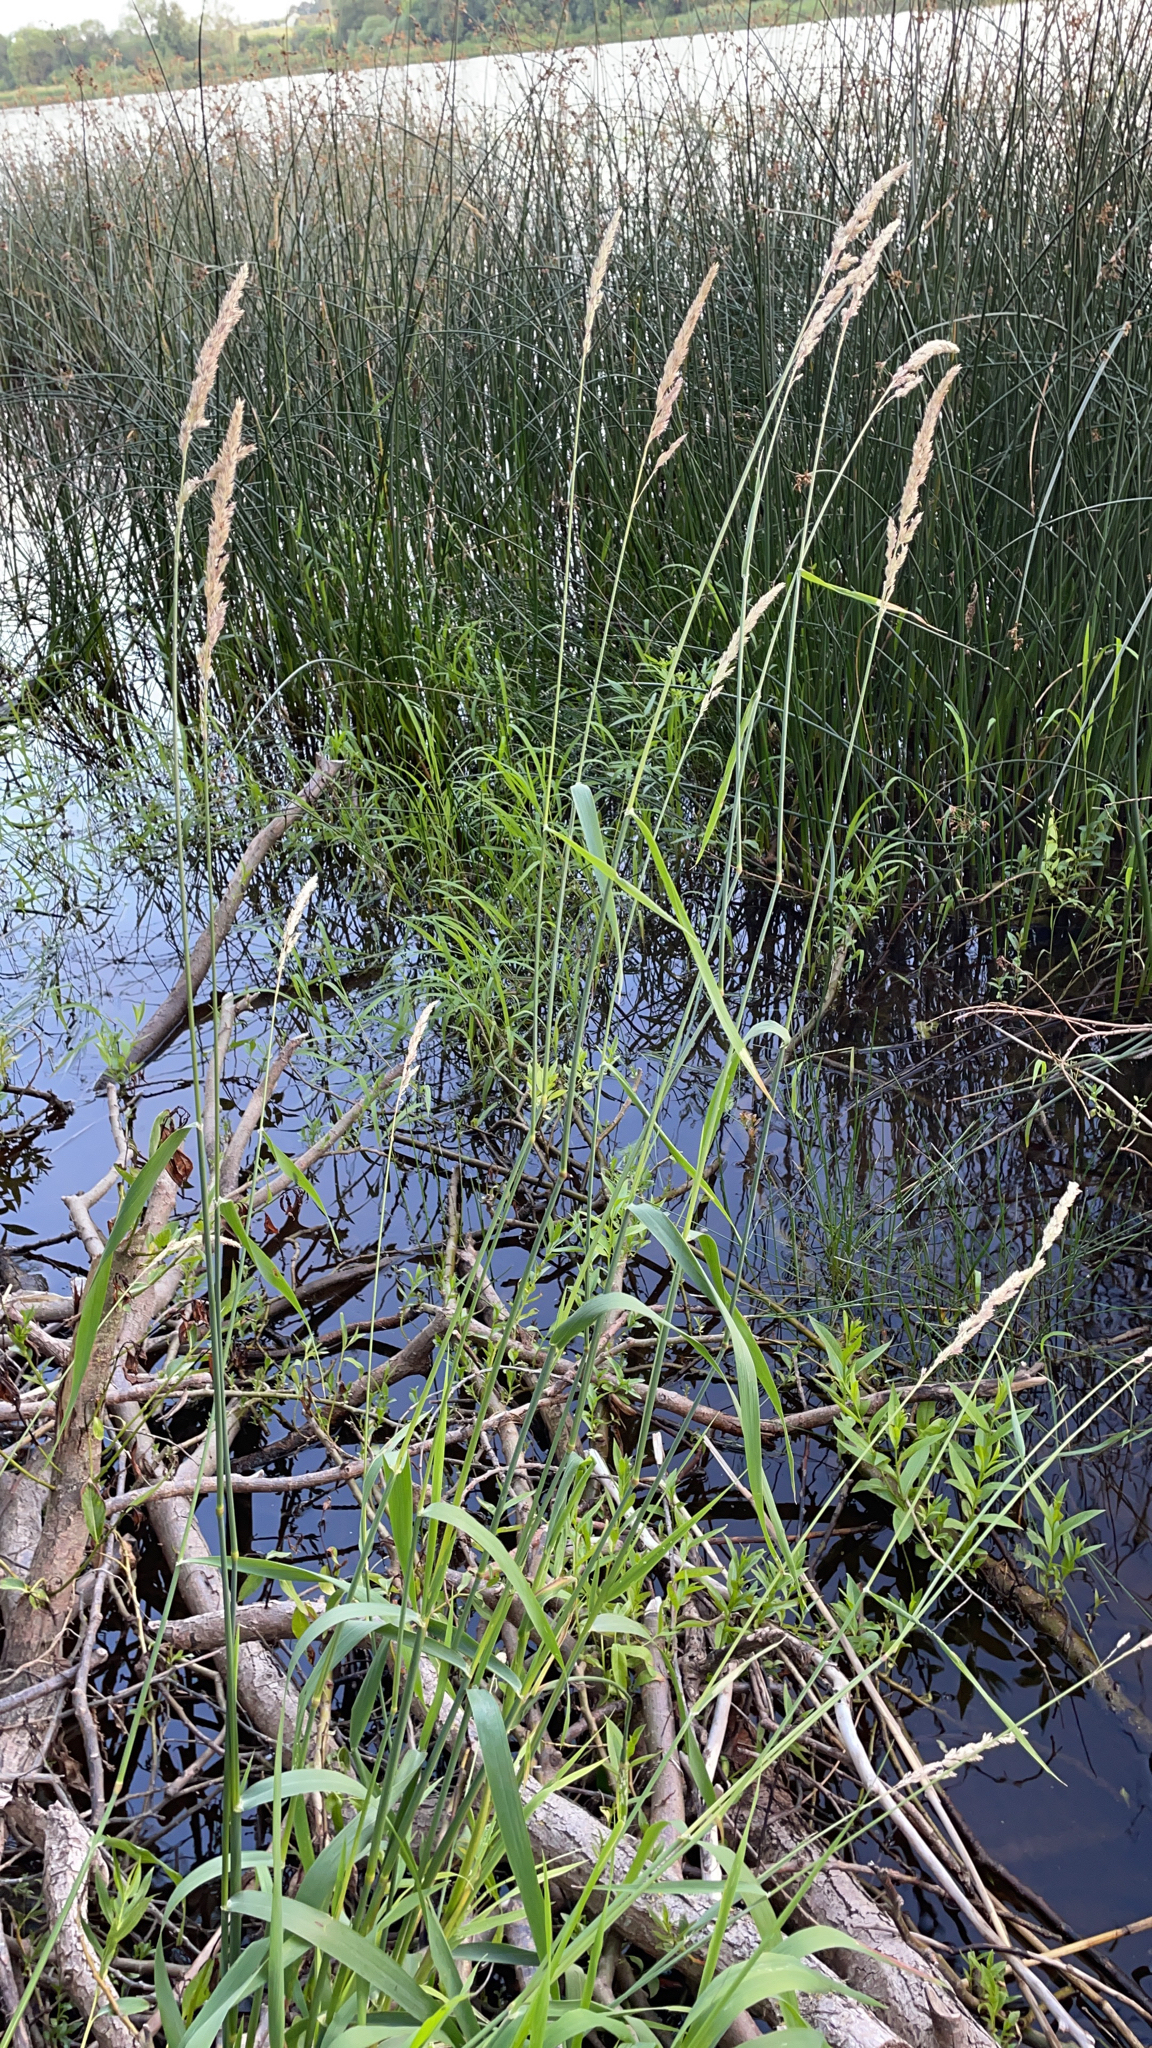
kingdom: Plantae
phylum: Tracheophyta
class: Liliopsida
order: Poales
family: Poaceae
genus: Phalaris
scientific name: Phalaris arundinacea
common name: Reed canary-grass
